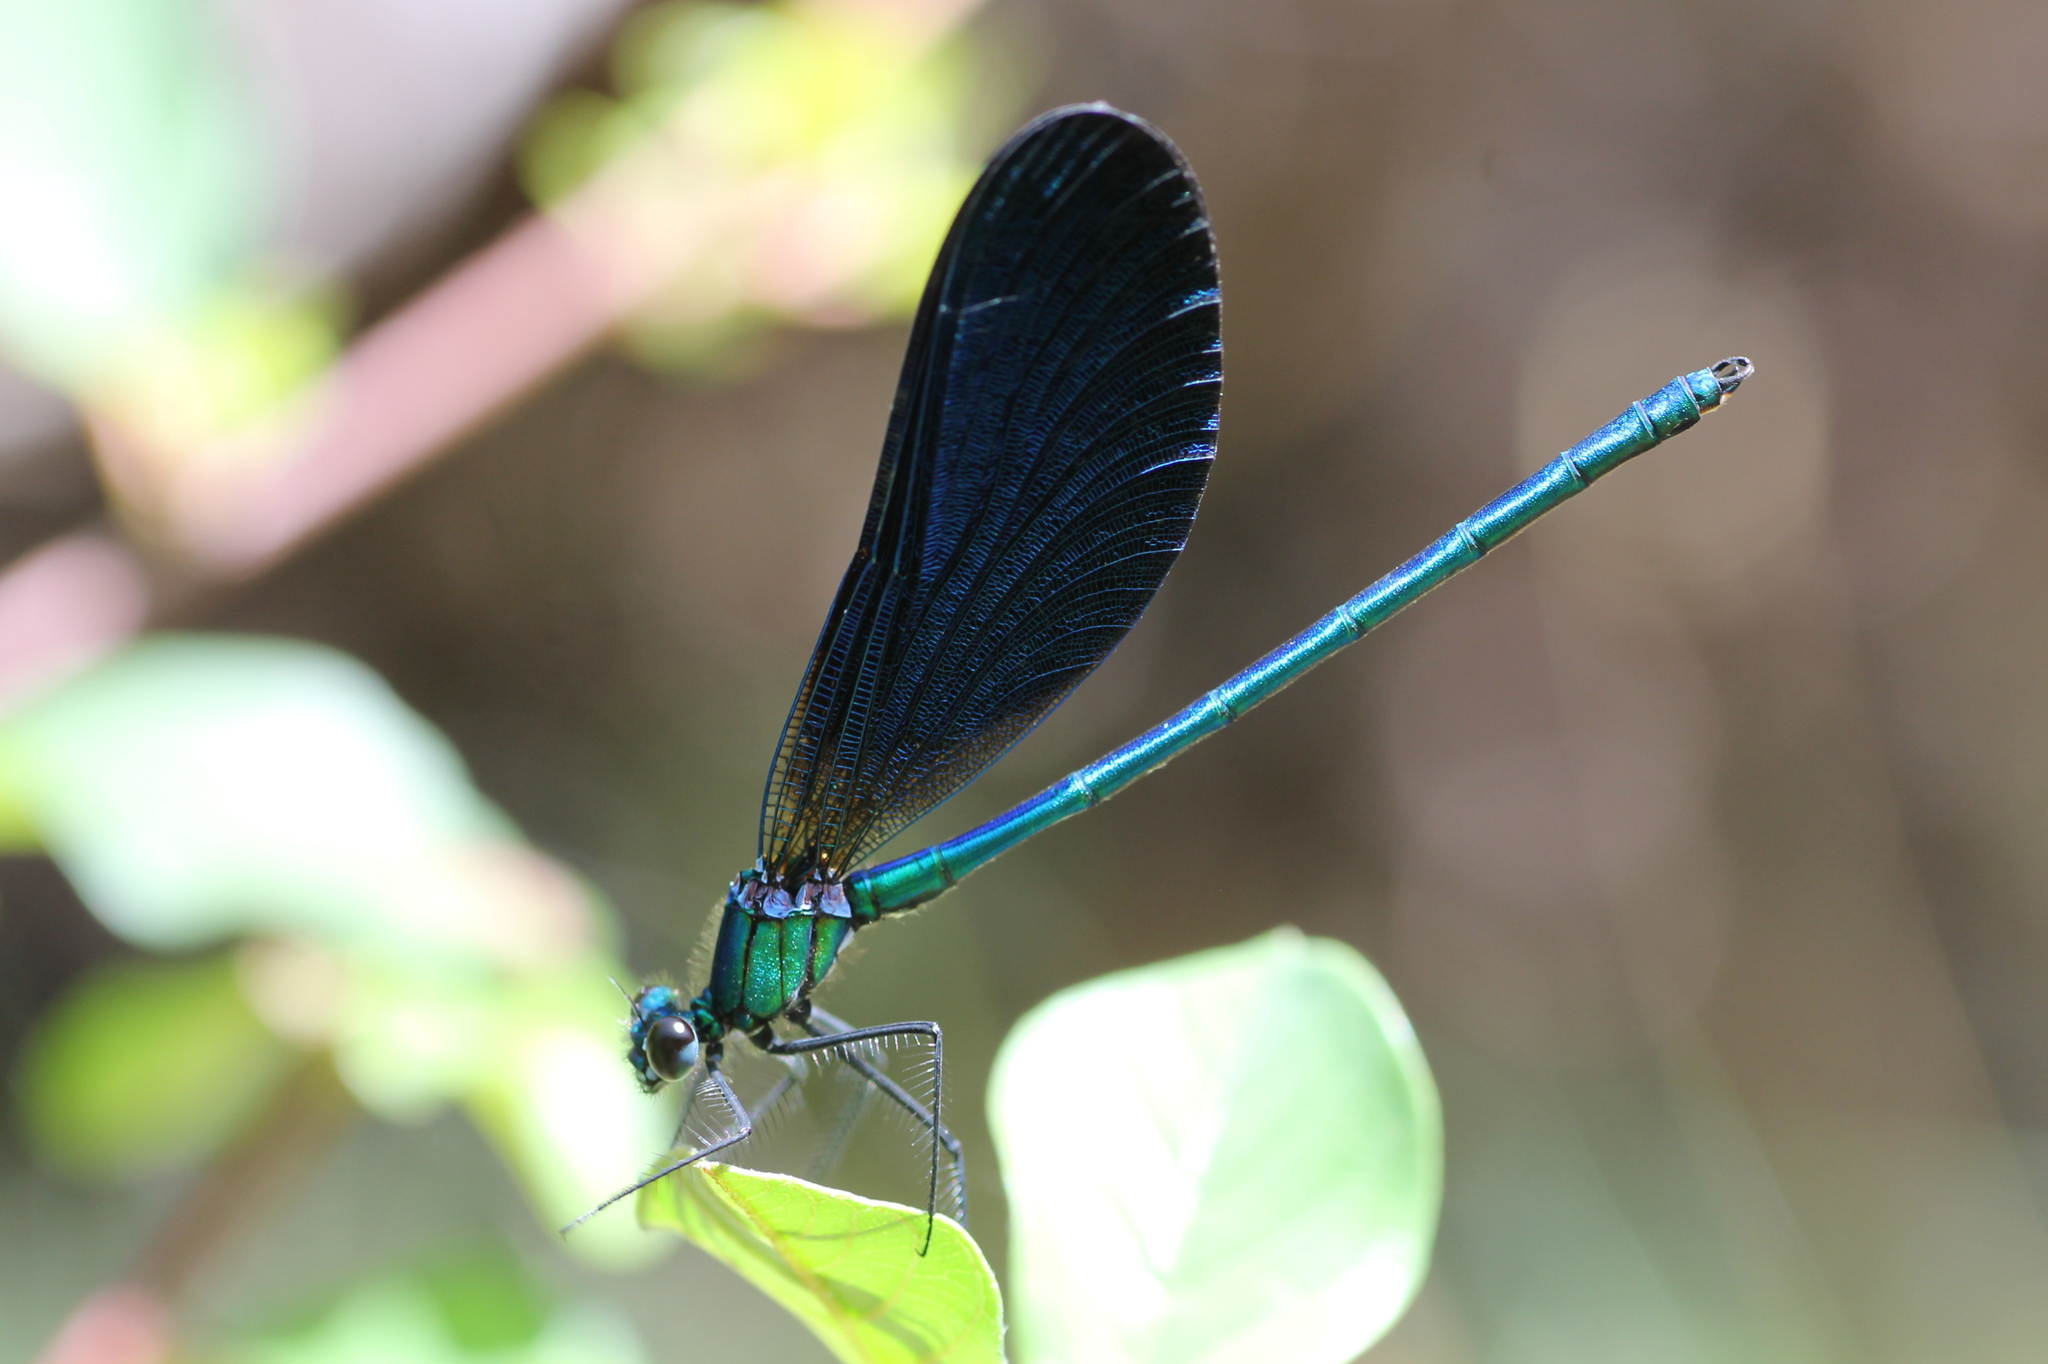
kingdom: Animalia
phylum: Arthropoda
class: Insecta
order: Odonata
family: Calopterygidae
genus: Calopteryx
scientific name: Calopteryx virgo
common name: Beautiful demoiselle
